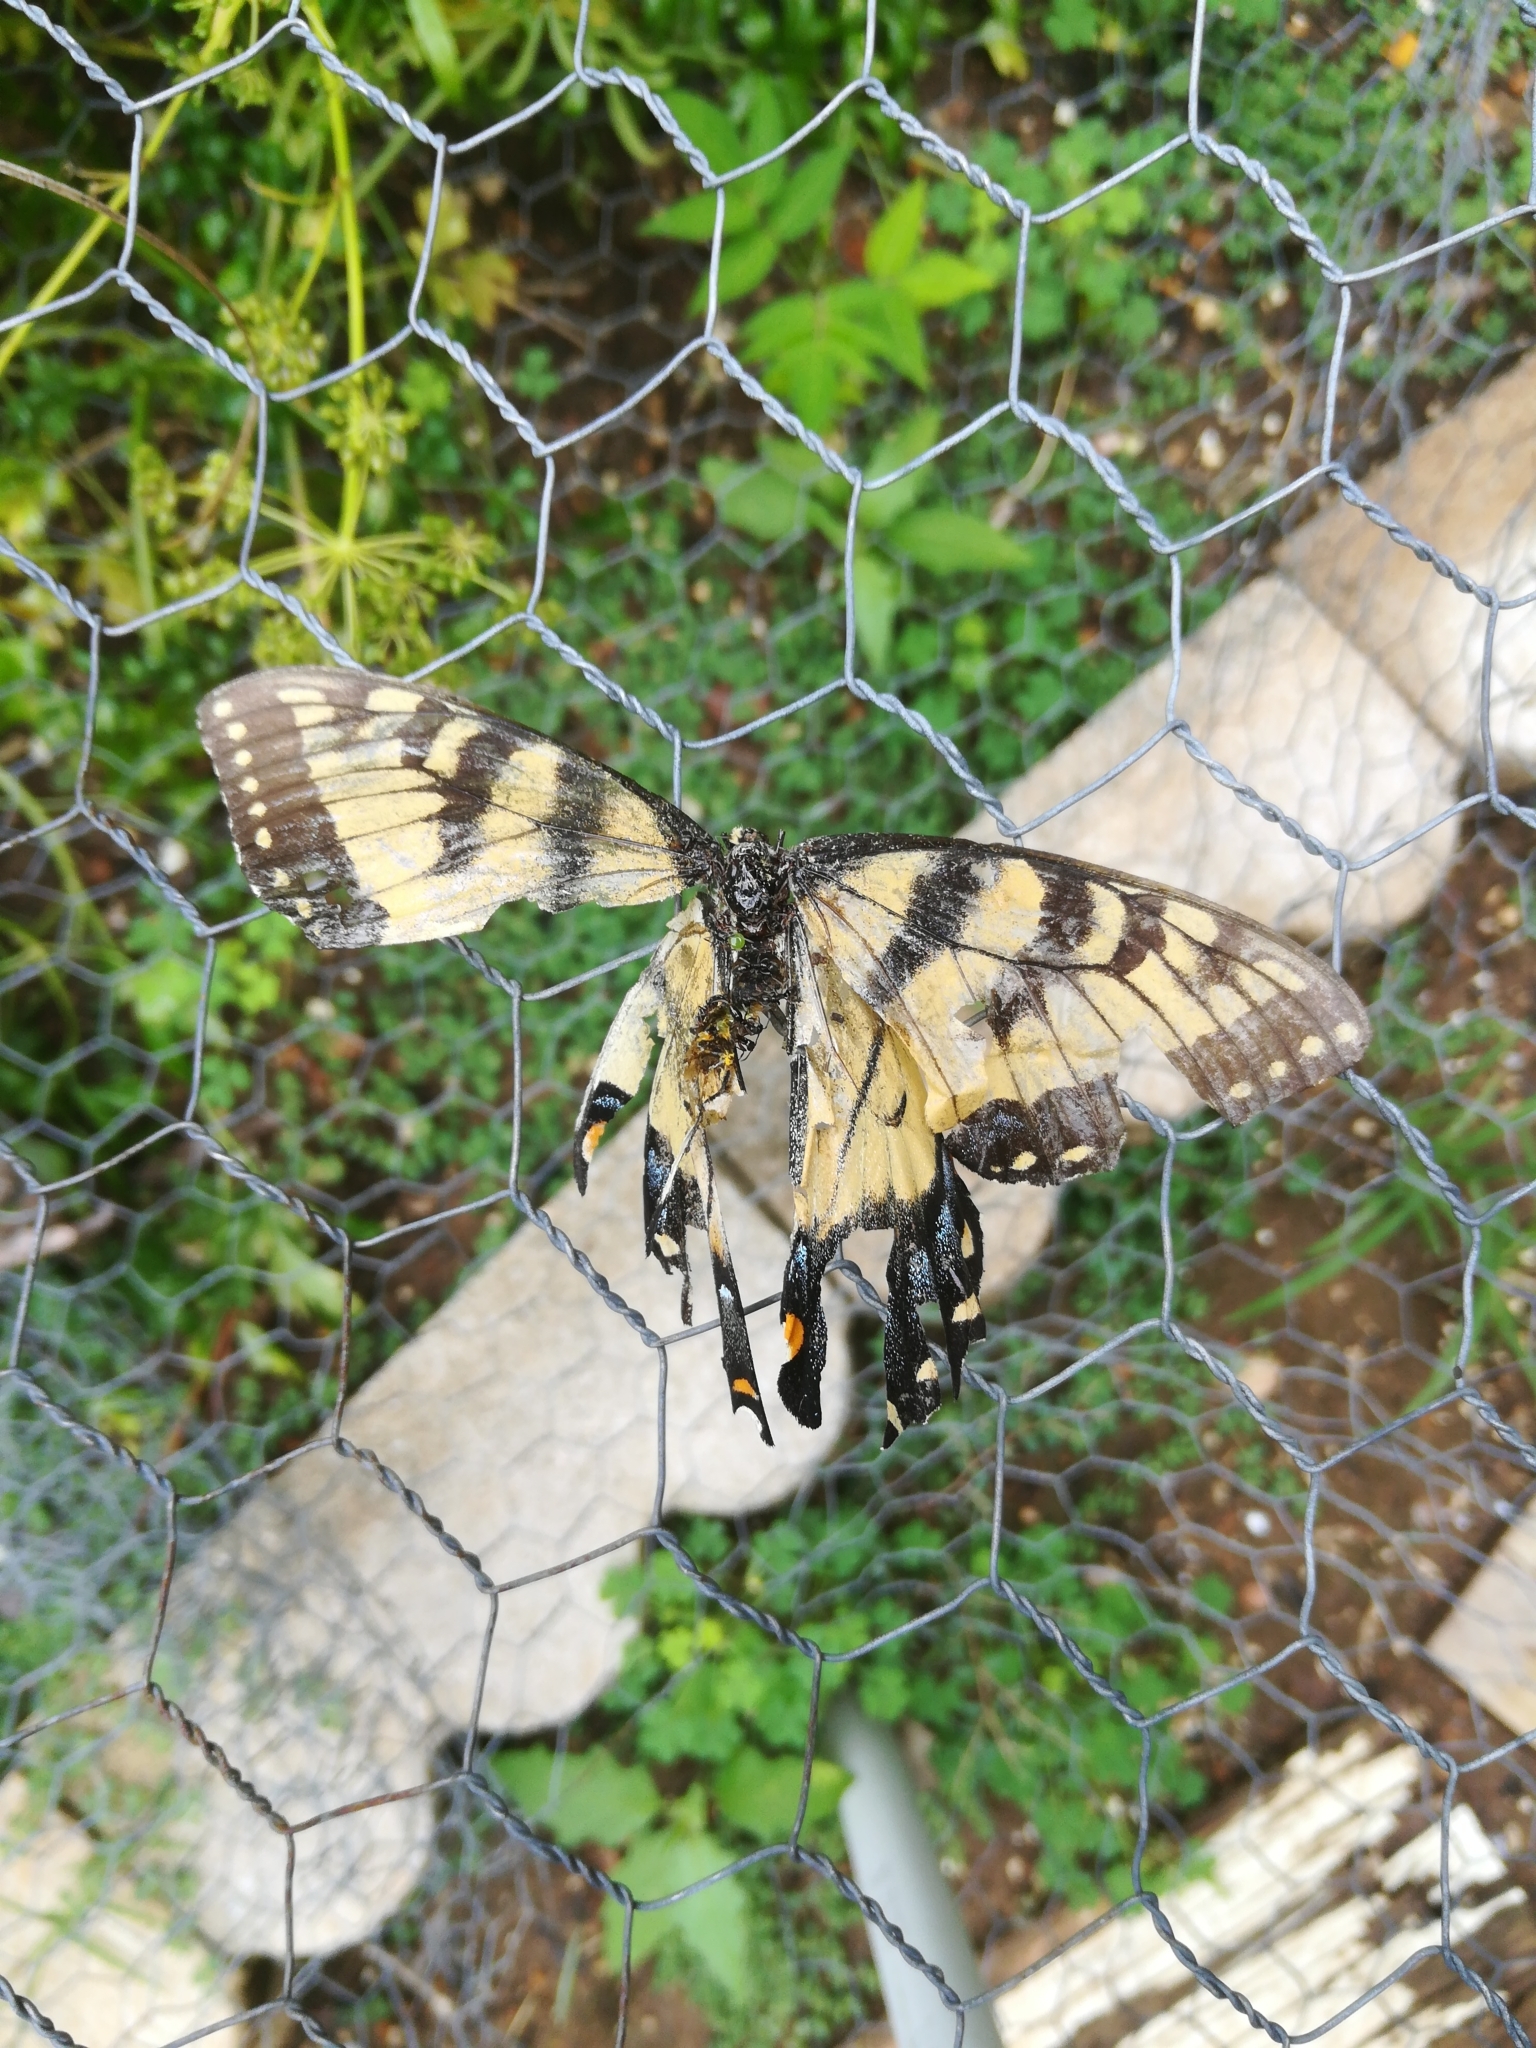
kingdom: Animalia
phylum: Arthropoda
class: Insecta
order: Lepidoptera
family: Papilionidae
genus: Papilio
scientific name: Papilio glaucus
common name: Tiger swallowtail
